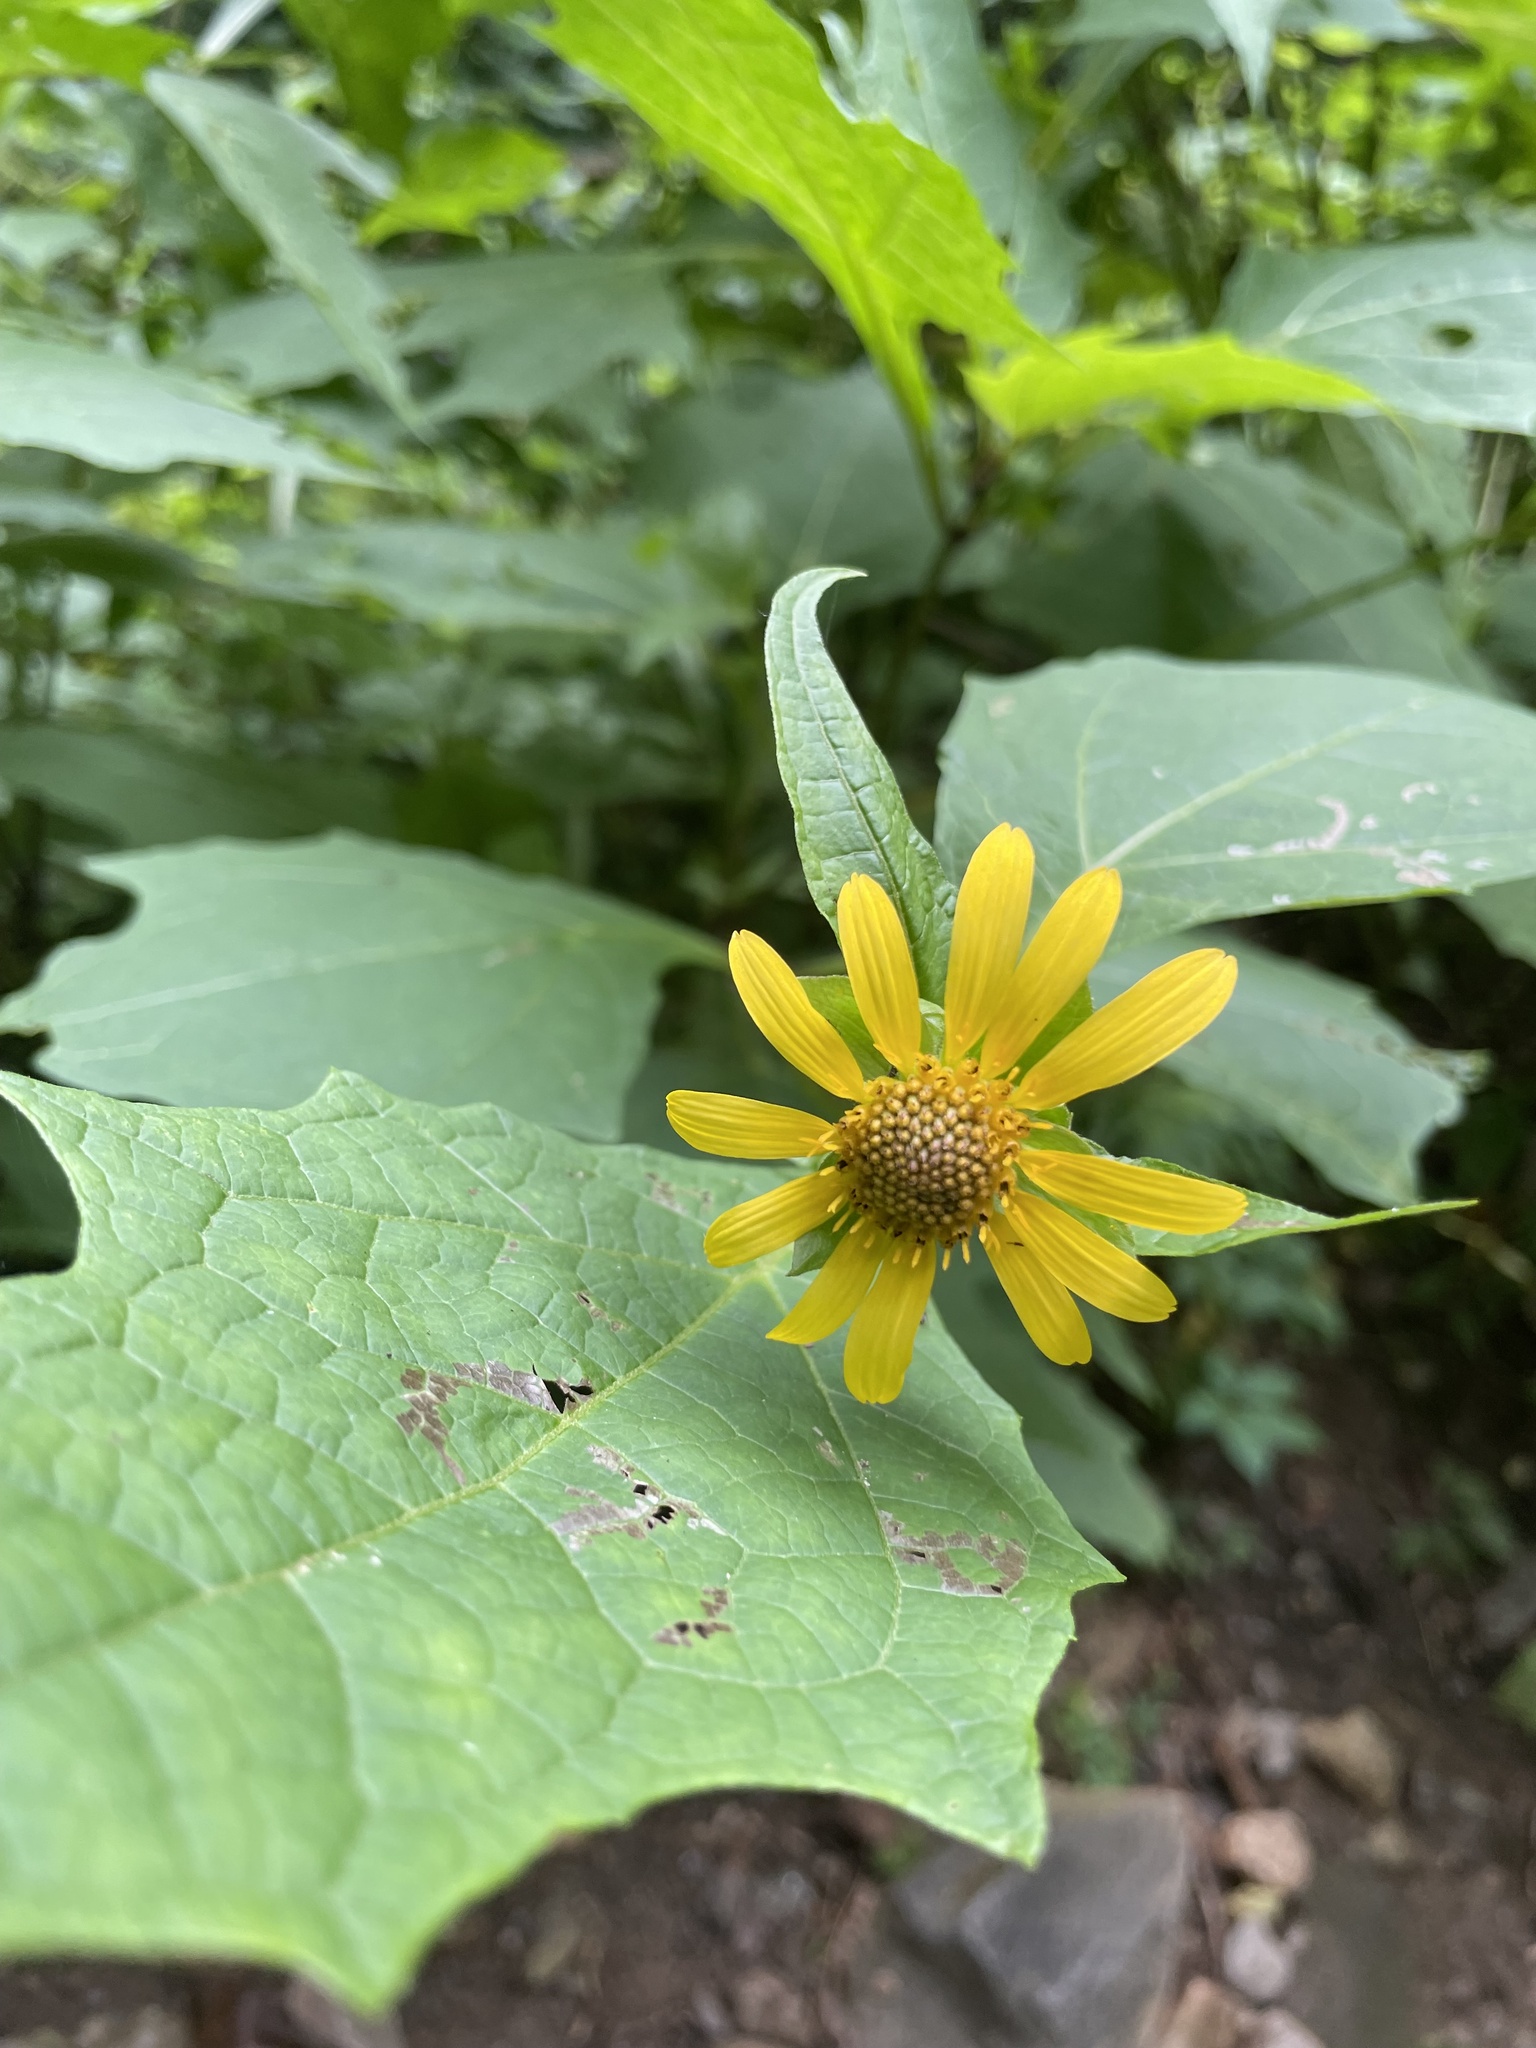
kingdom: Plantae
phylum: Tracheophyta
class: Magnoliopsida
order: Asterales
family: Asteraceae
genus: Smallanthus
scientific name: Smallanthus uvedalia
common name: Bear's-foot
